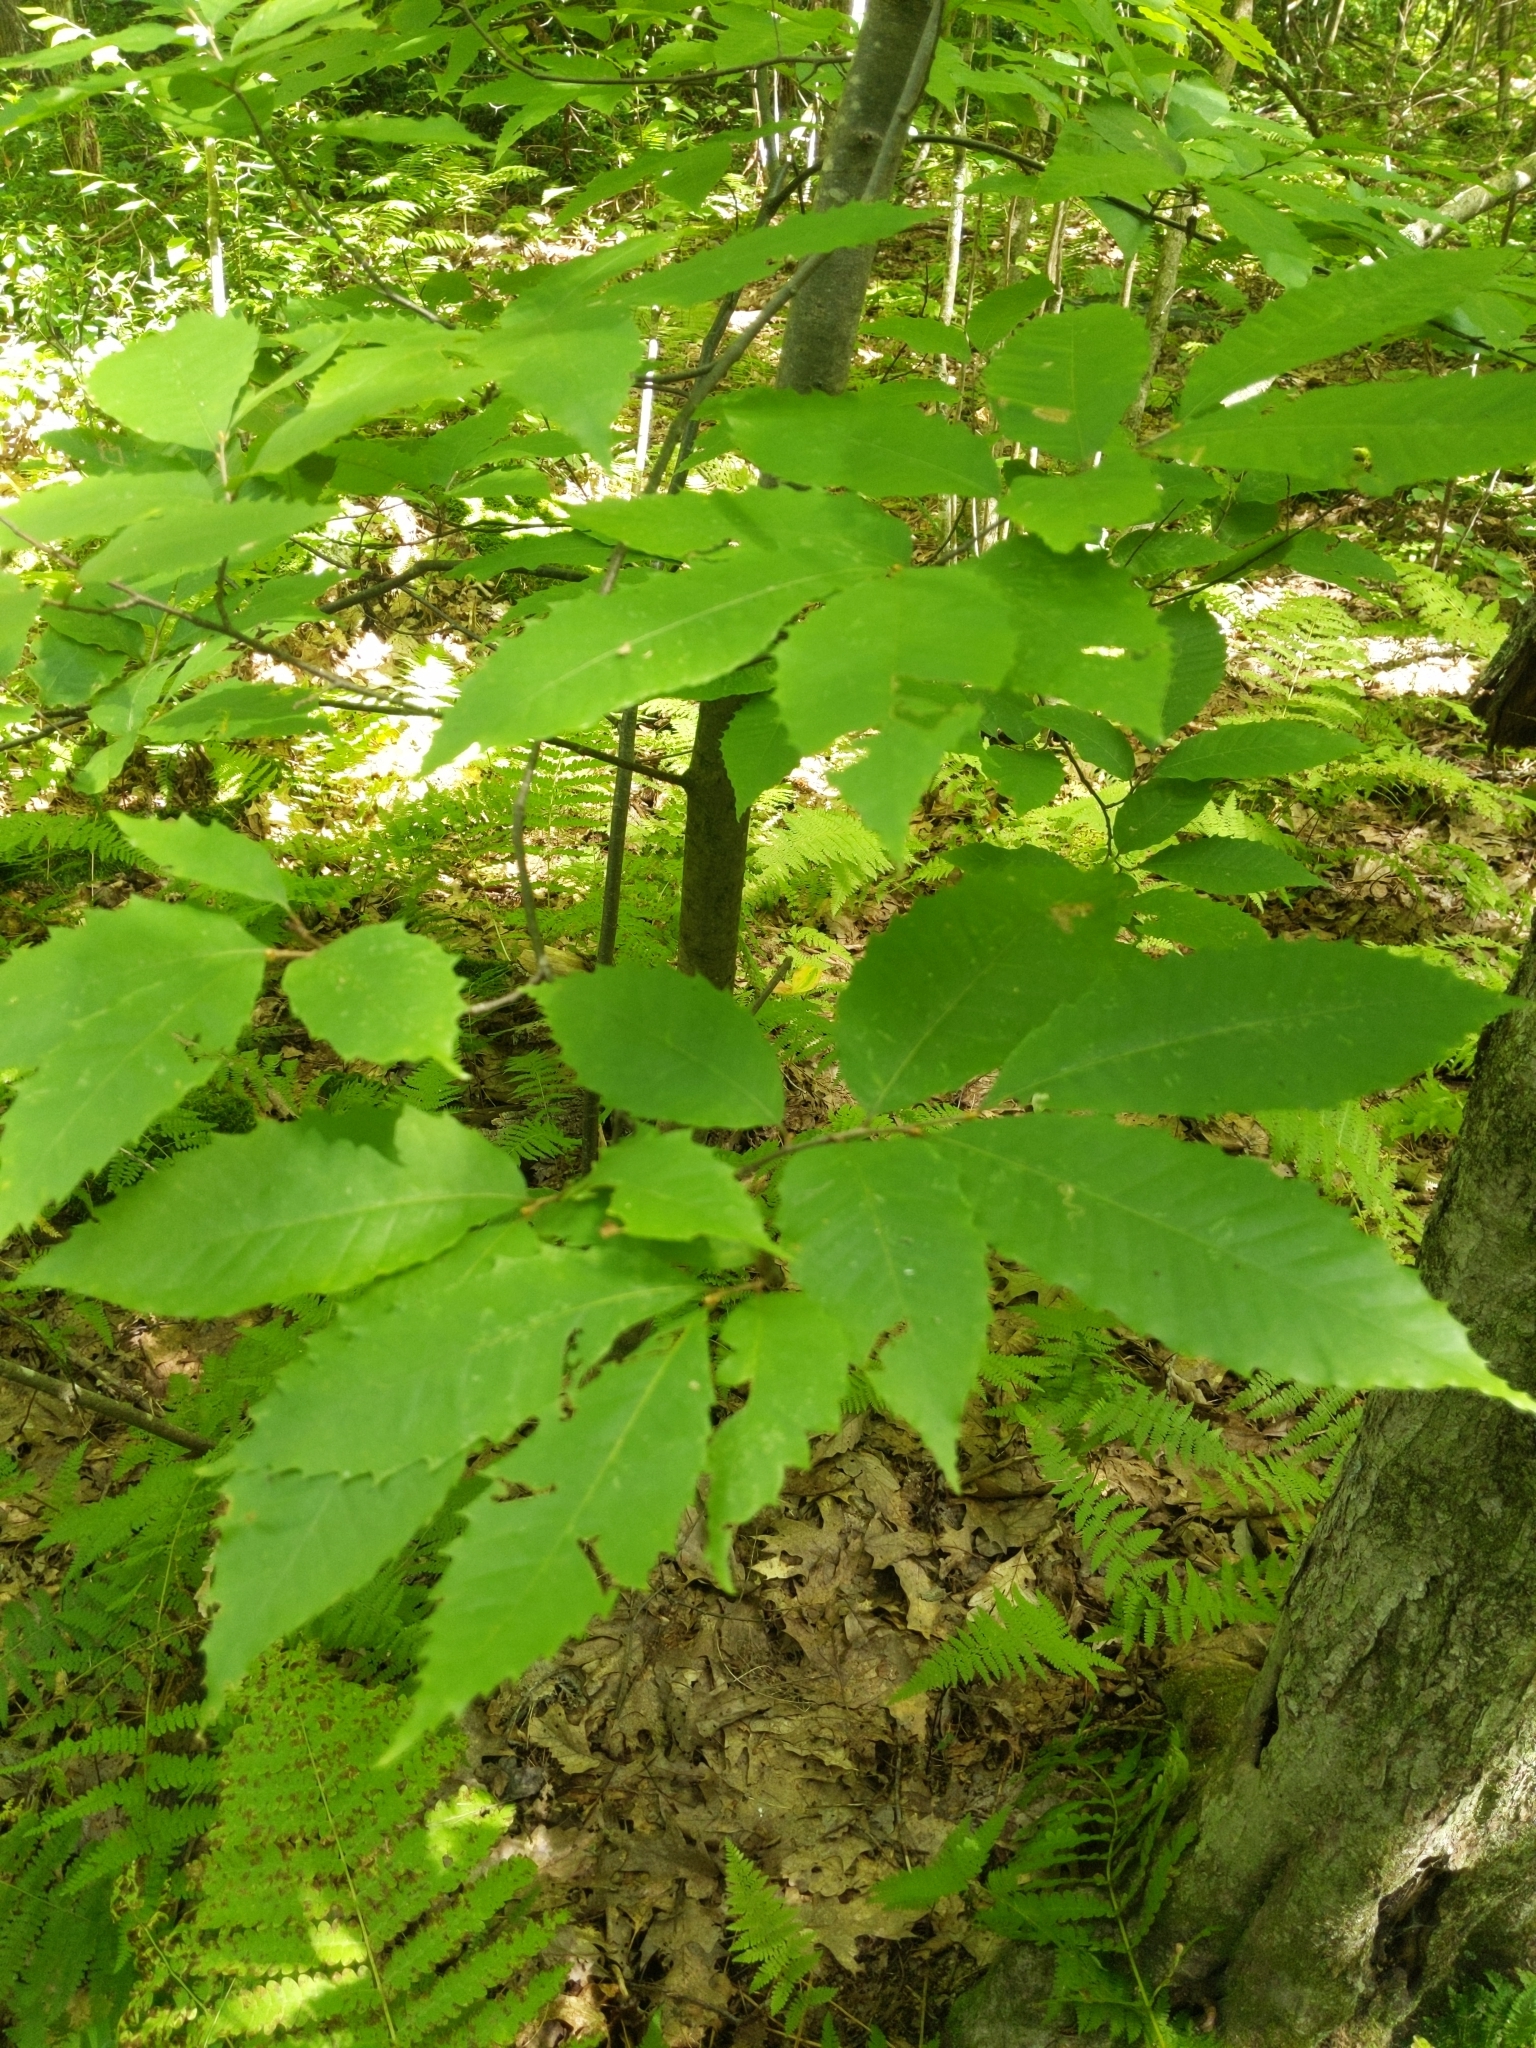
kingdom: Plantae
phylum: Tracheophyta
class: Magnoliopsida
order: Fagales
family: Fagaceae
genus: Castanea
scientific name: Castanea dentata
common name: American chestnut
